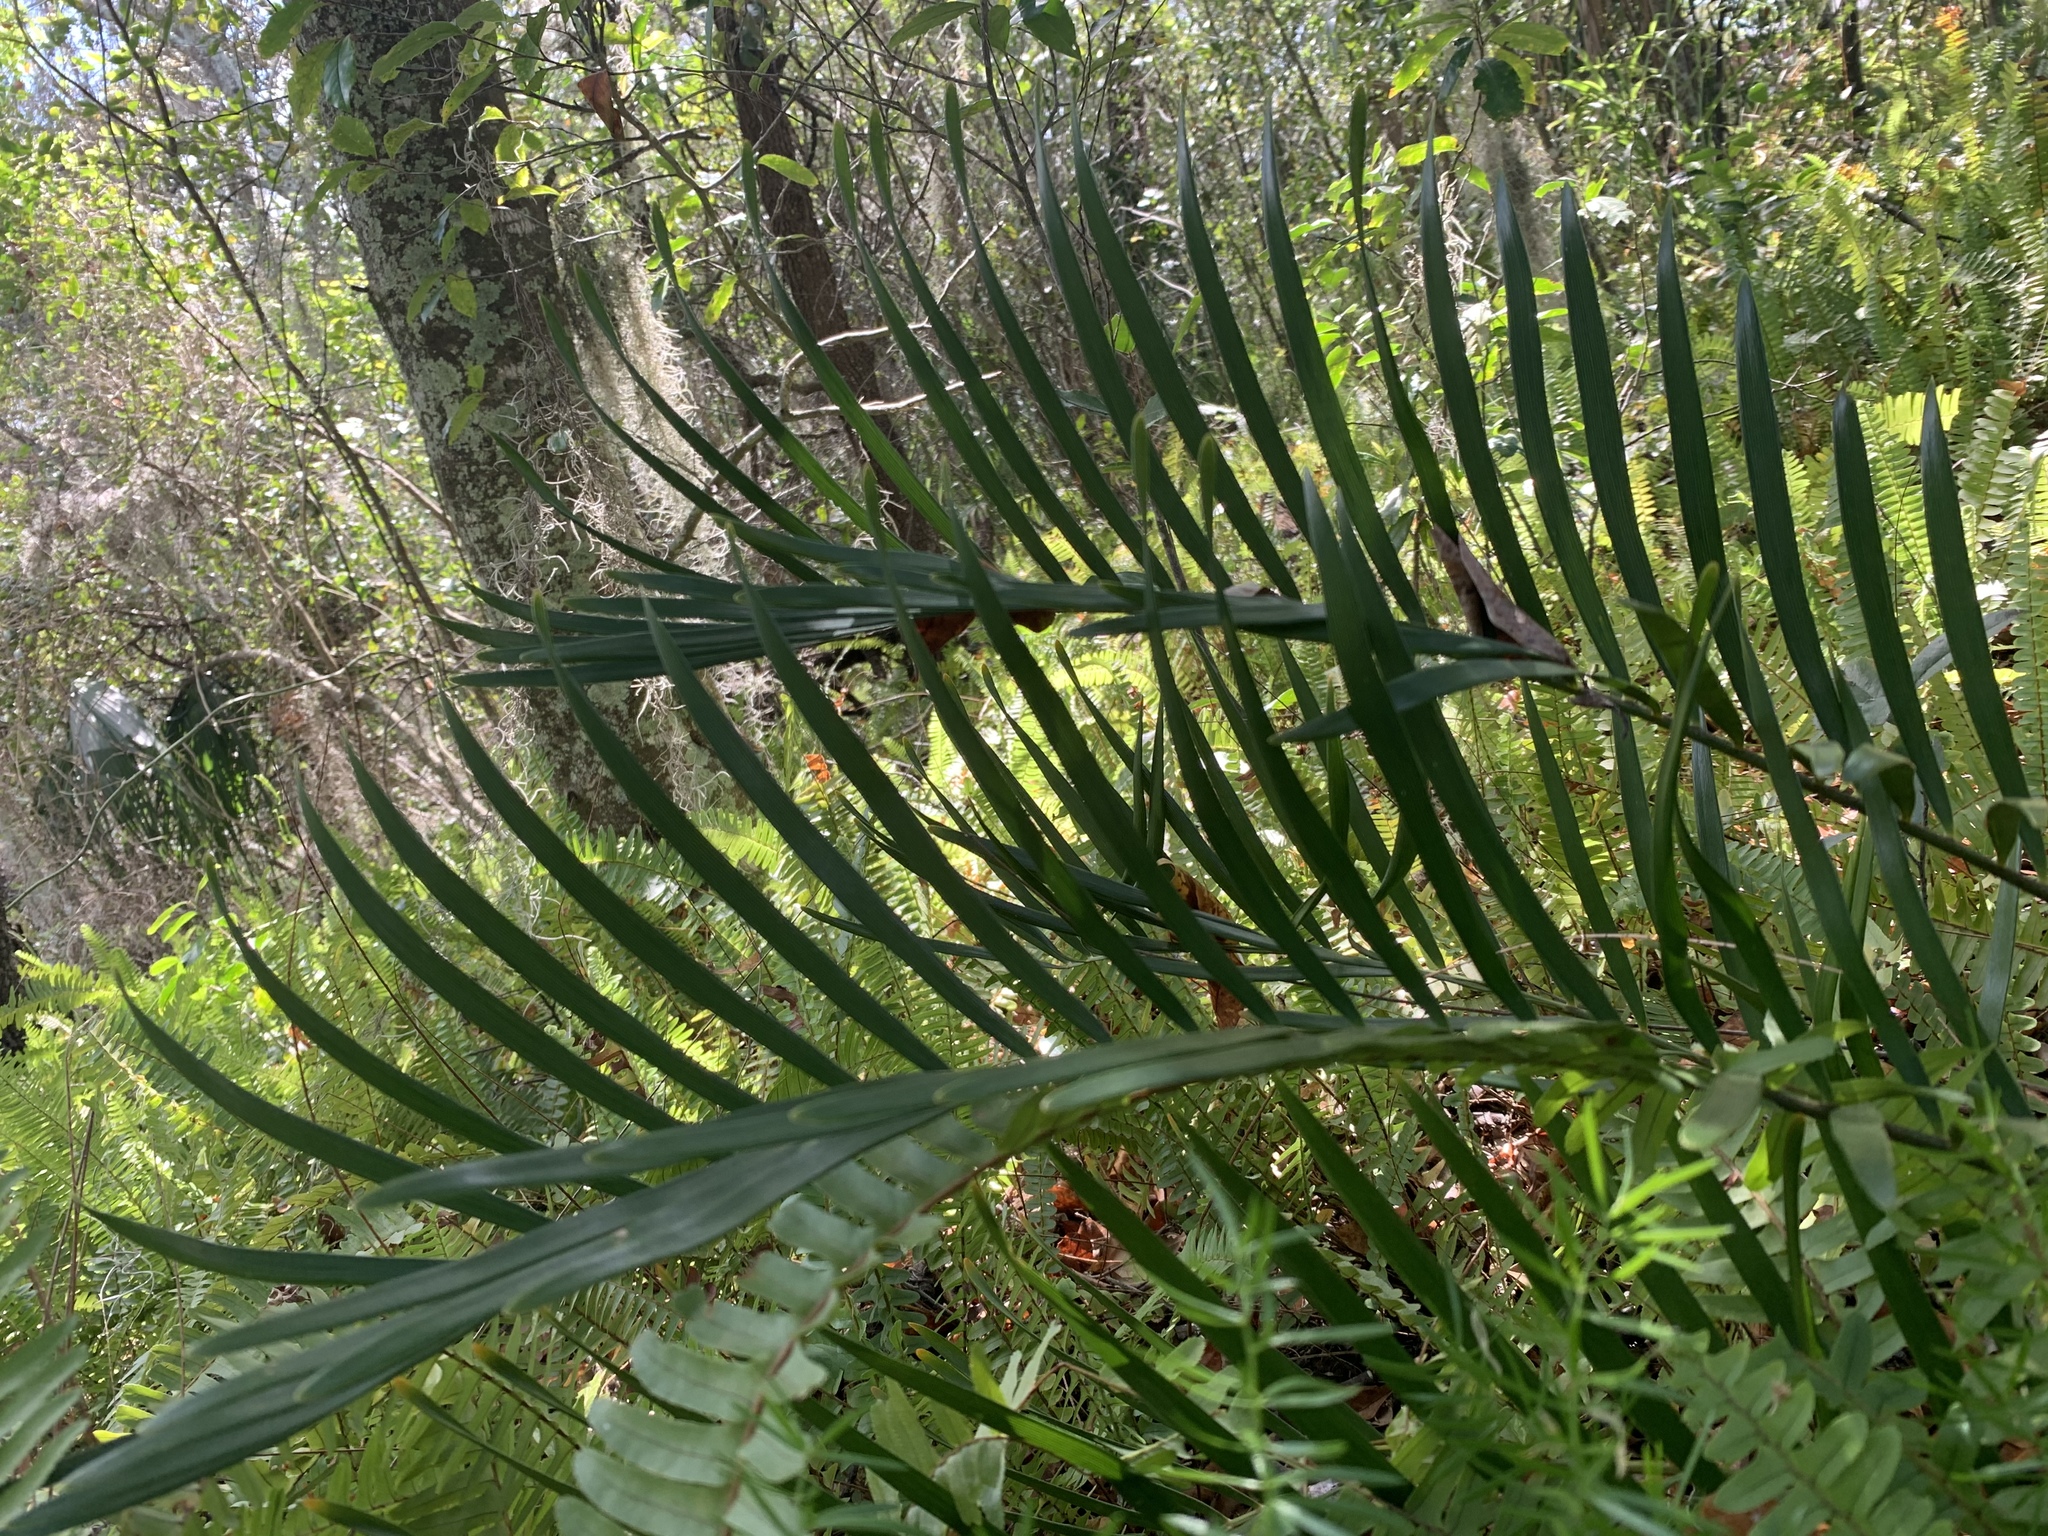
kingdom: Plantae
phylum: Tracheophyta
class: Cycadopsida
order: Cycadales
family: Zamiaceae
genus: Zamia
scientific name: Zamia integrifolia
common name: Florida arrowroot
